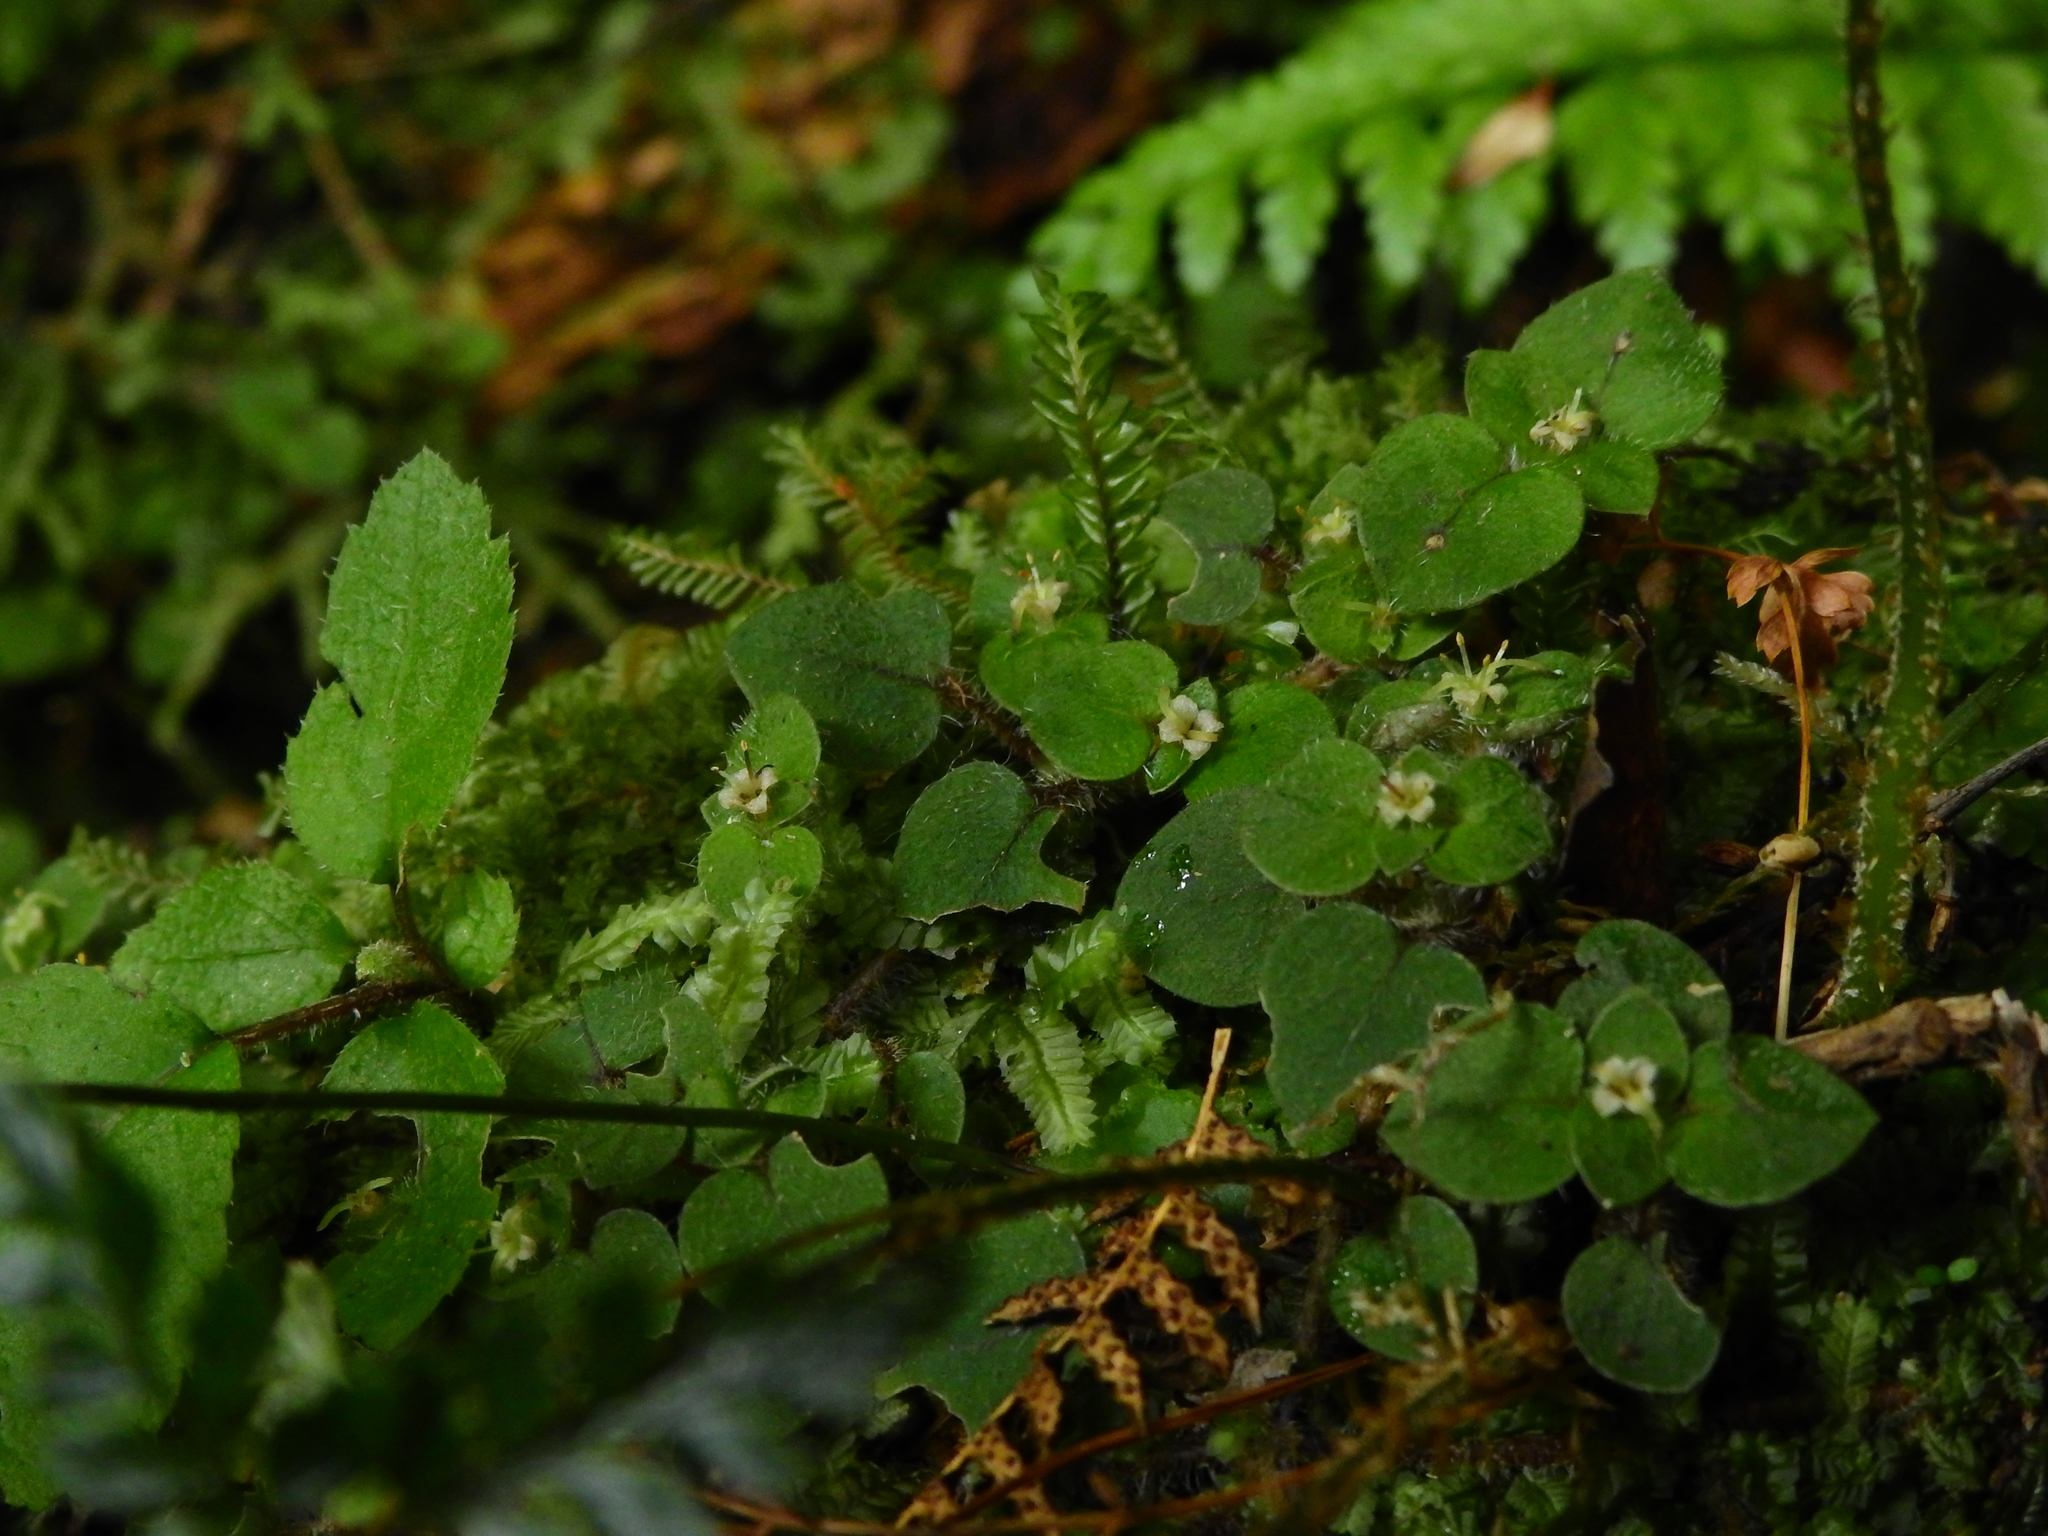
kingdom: Plantae
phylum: Tracheophyta
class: Magnoliopsida
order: Gentianales
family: Rubiaceae
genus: Nertera
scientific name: Nertera villosa
